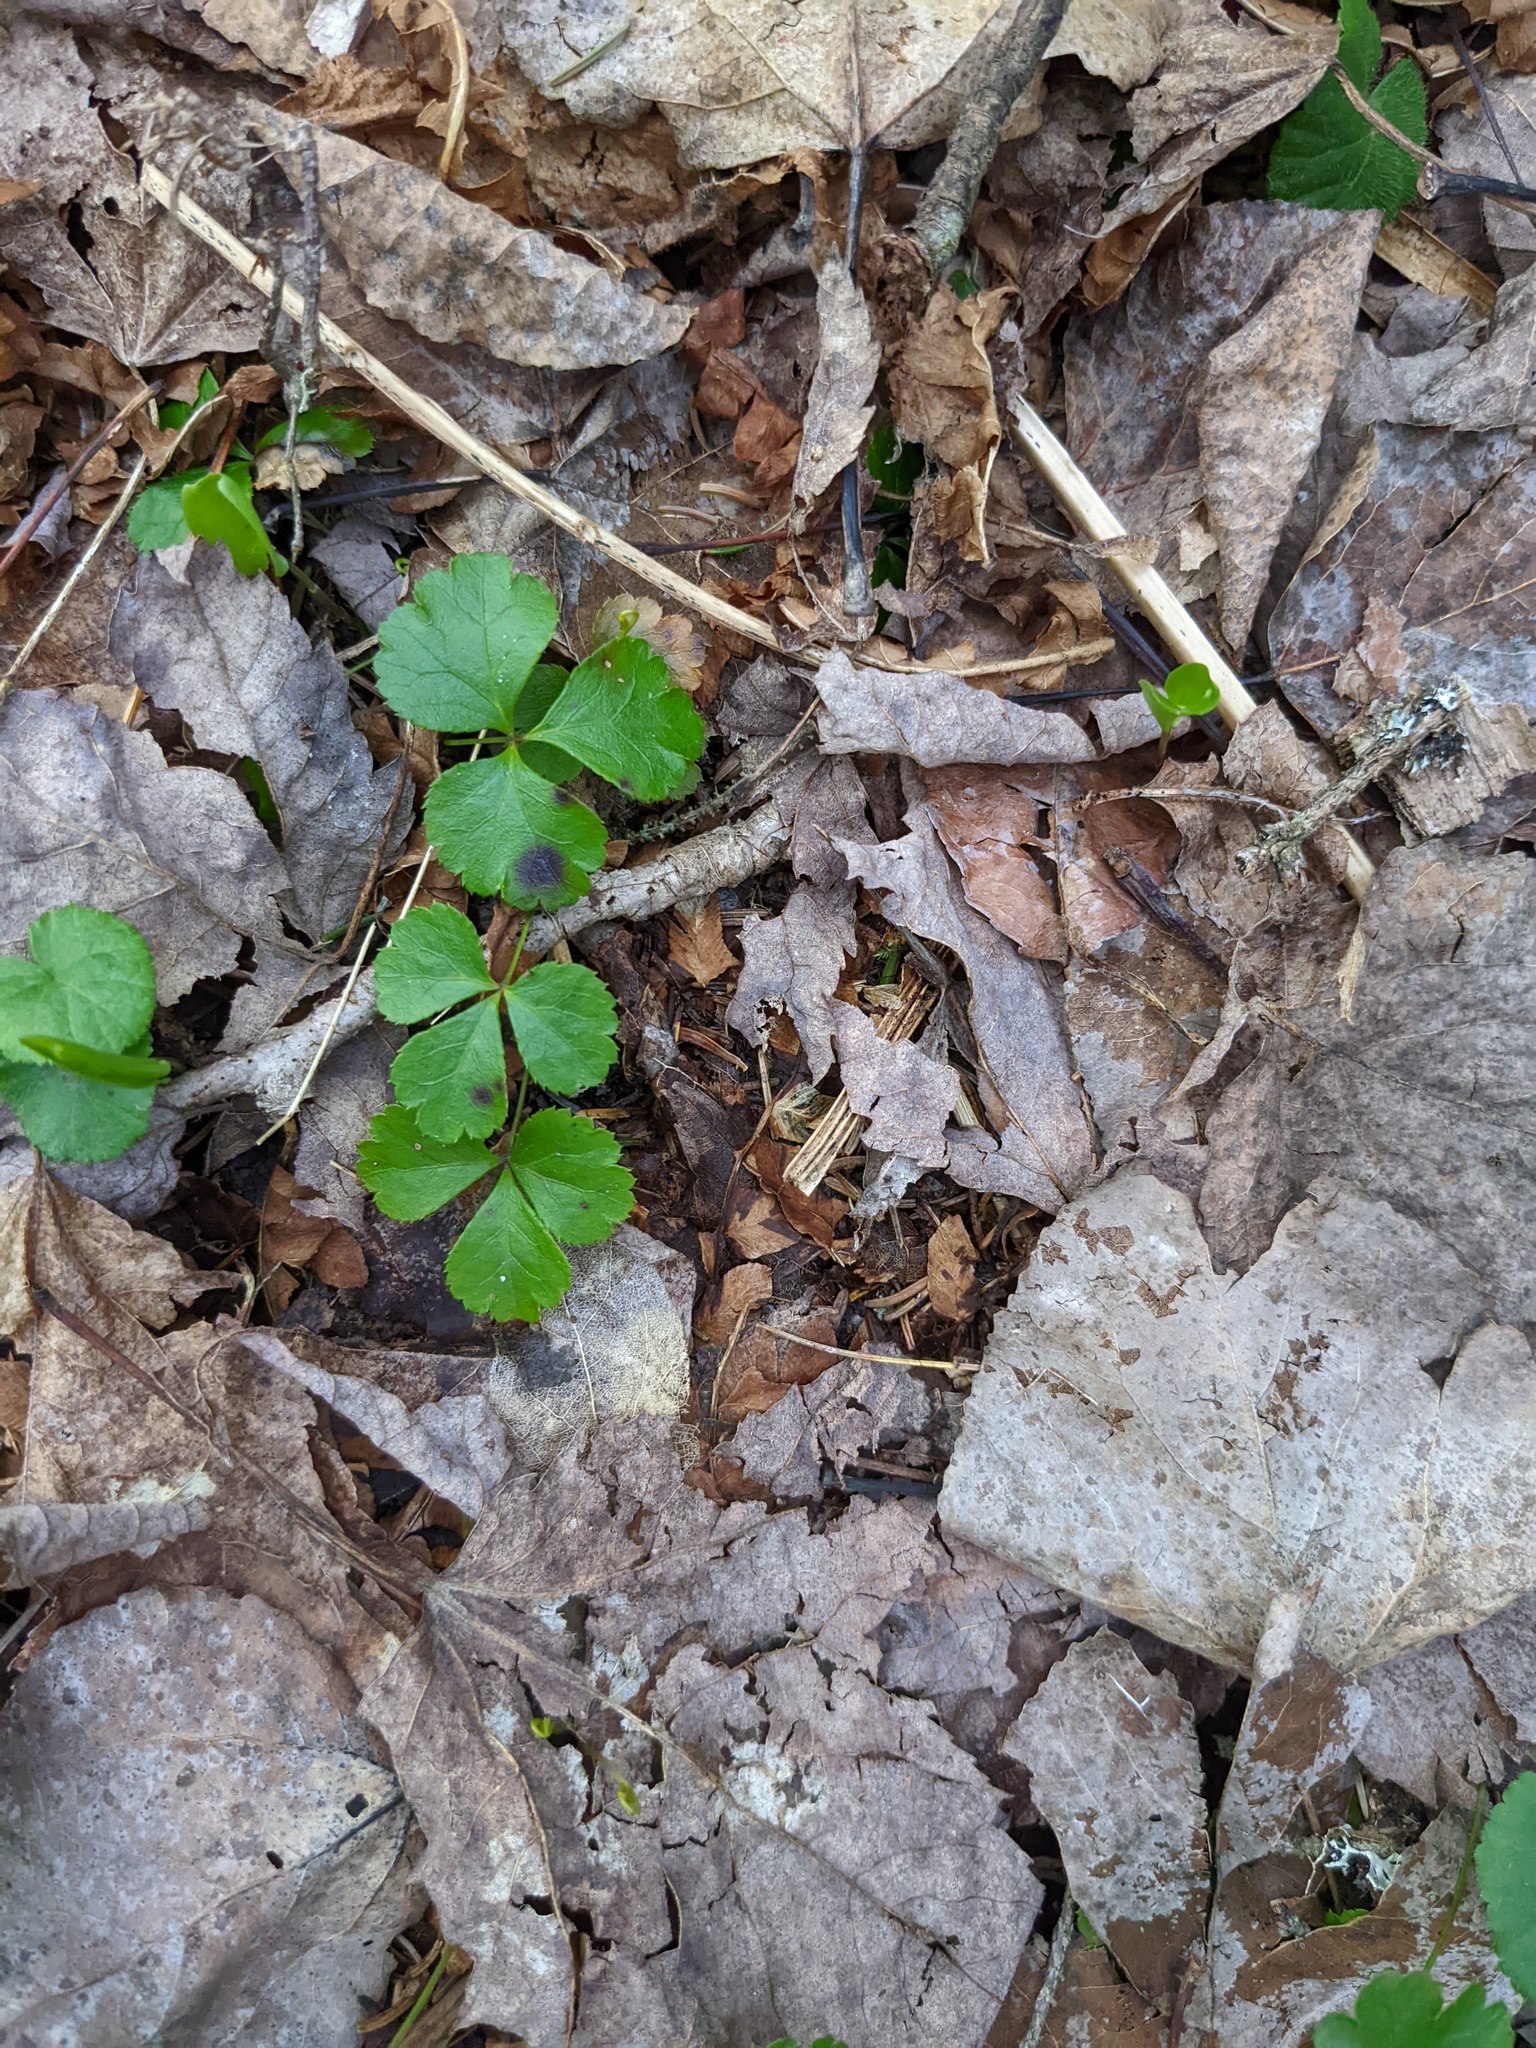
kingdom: Plantae
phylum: Tracheophyta
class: Magnoliopsida
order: Ranunculales
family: Ranunculaceae
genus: Coptis
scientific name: Coptis trifolia
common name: Canker-root
